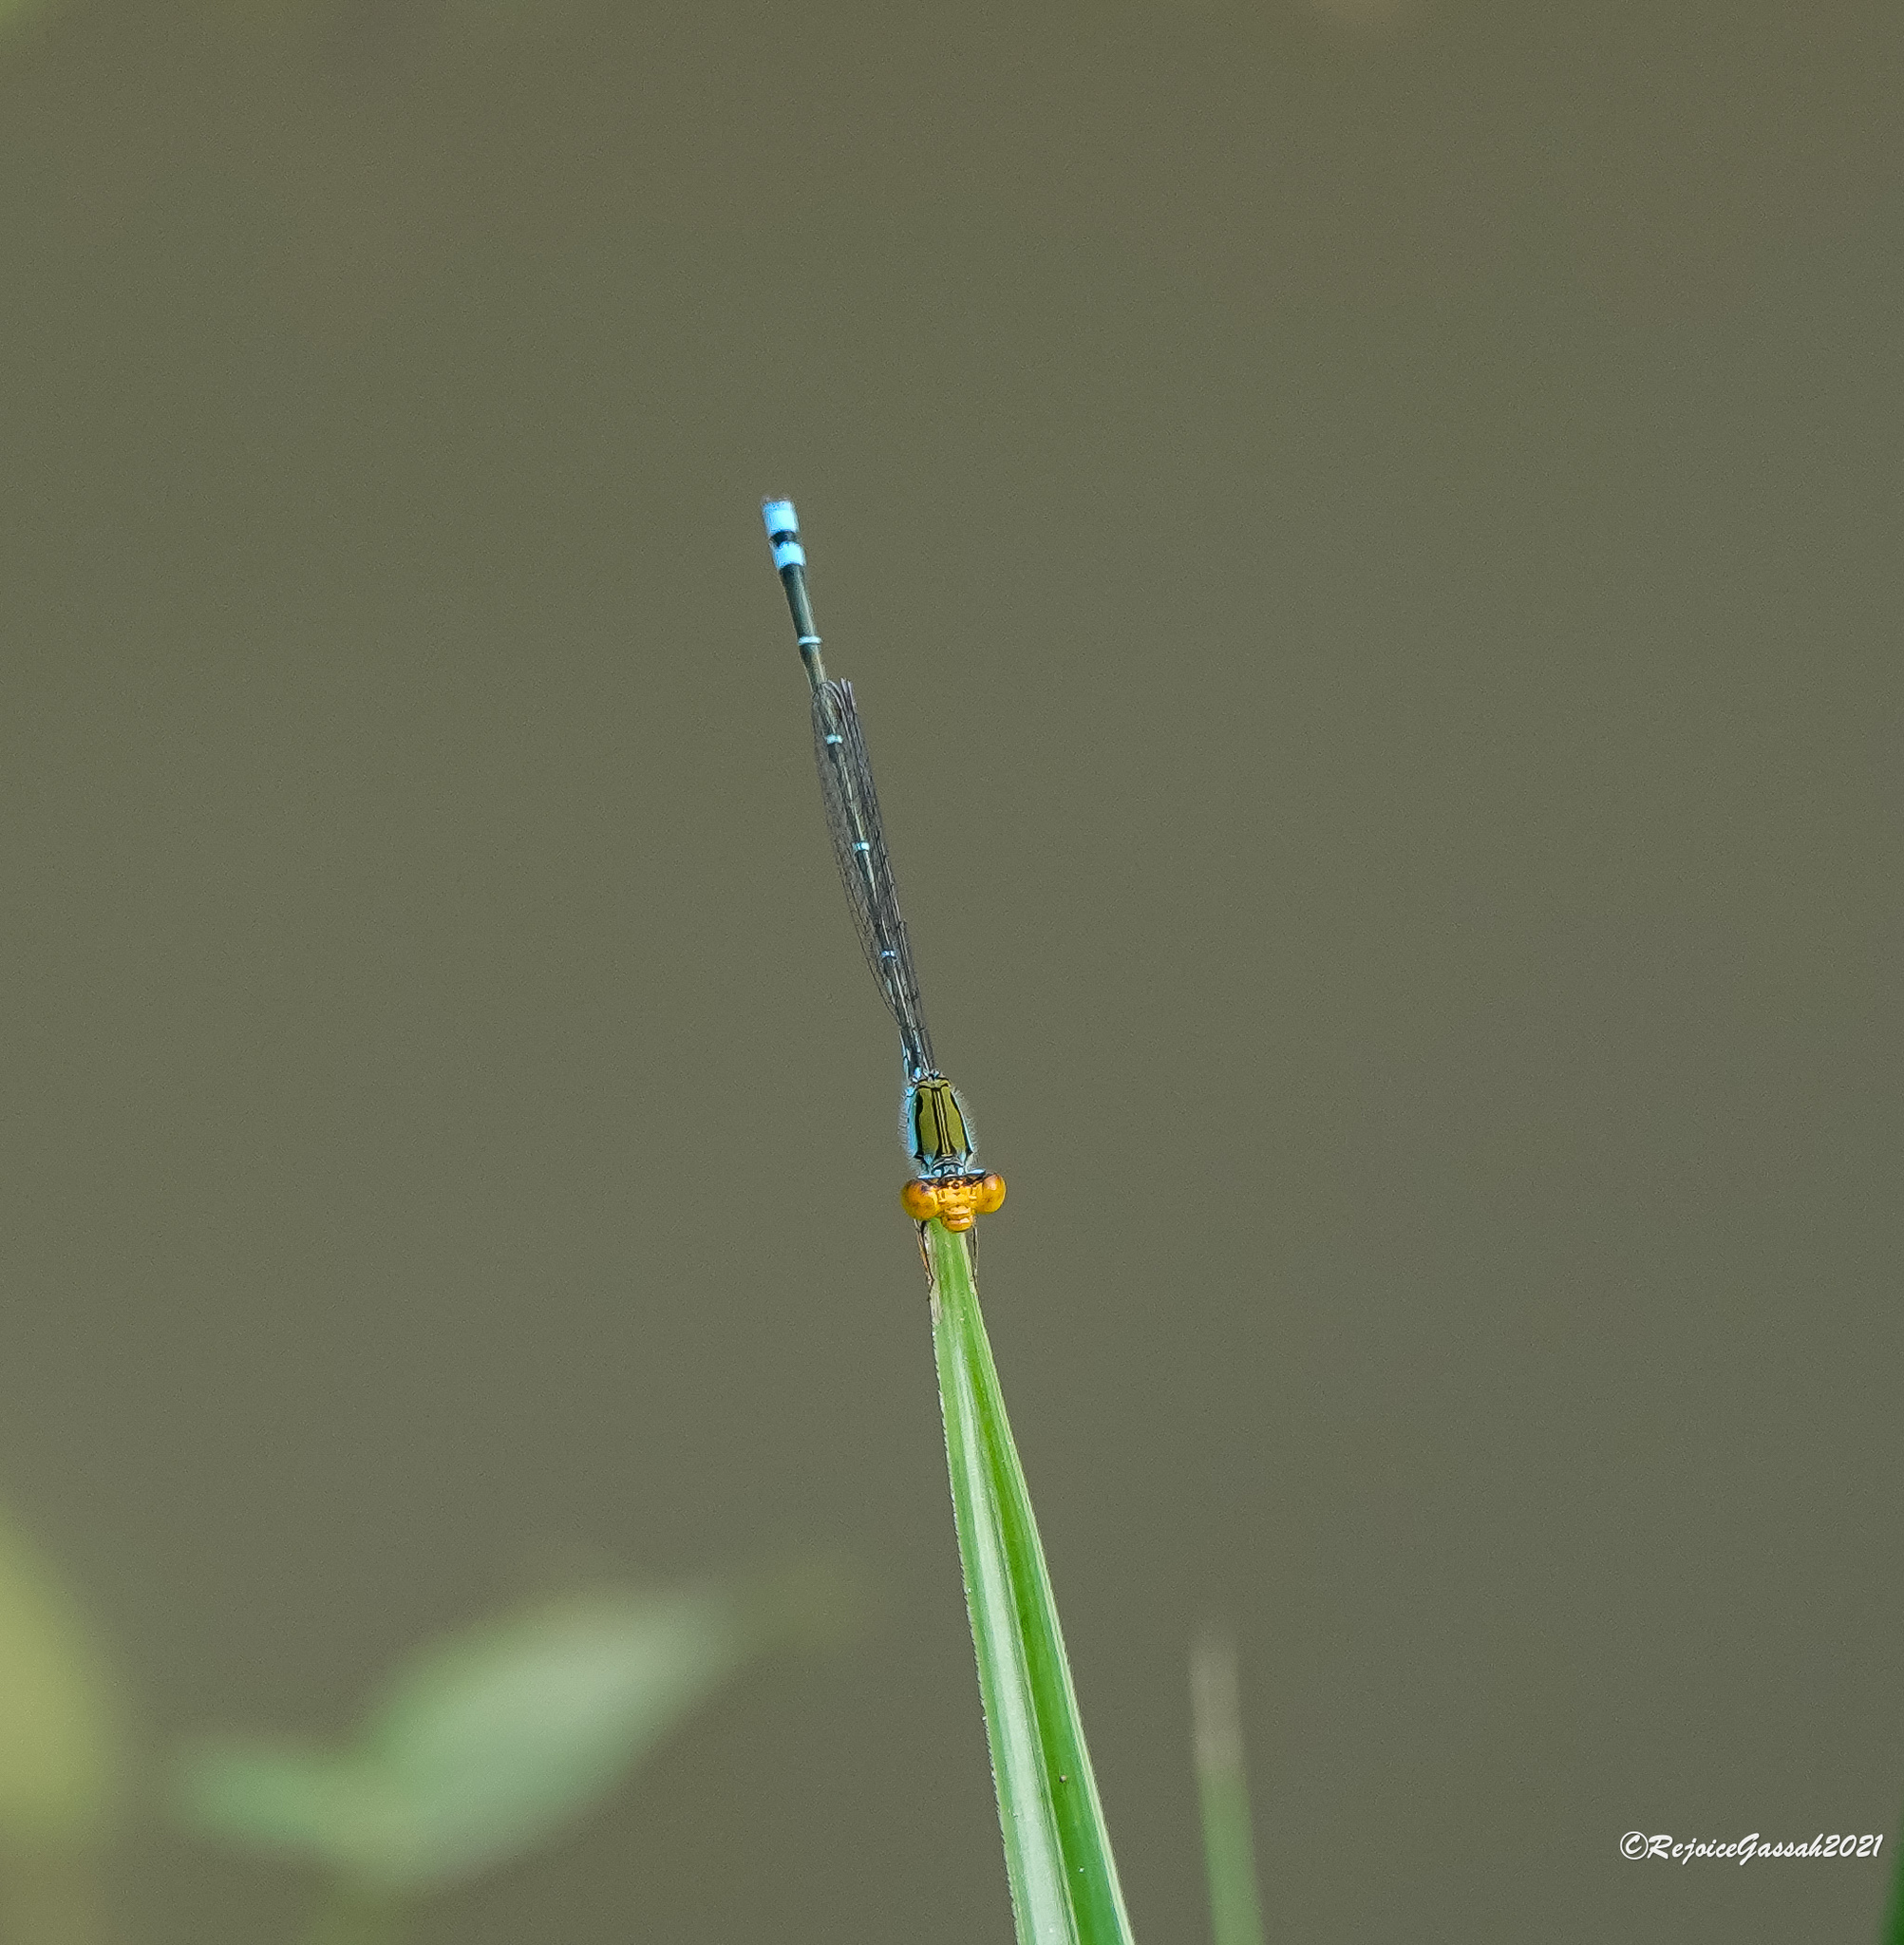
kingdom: Animalia
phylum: Arthropoda
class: Insecta
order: Odonata
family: Coenagrionidae
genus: Pseudagrion
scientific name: Pseudagrion rubriceps
